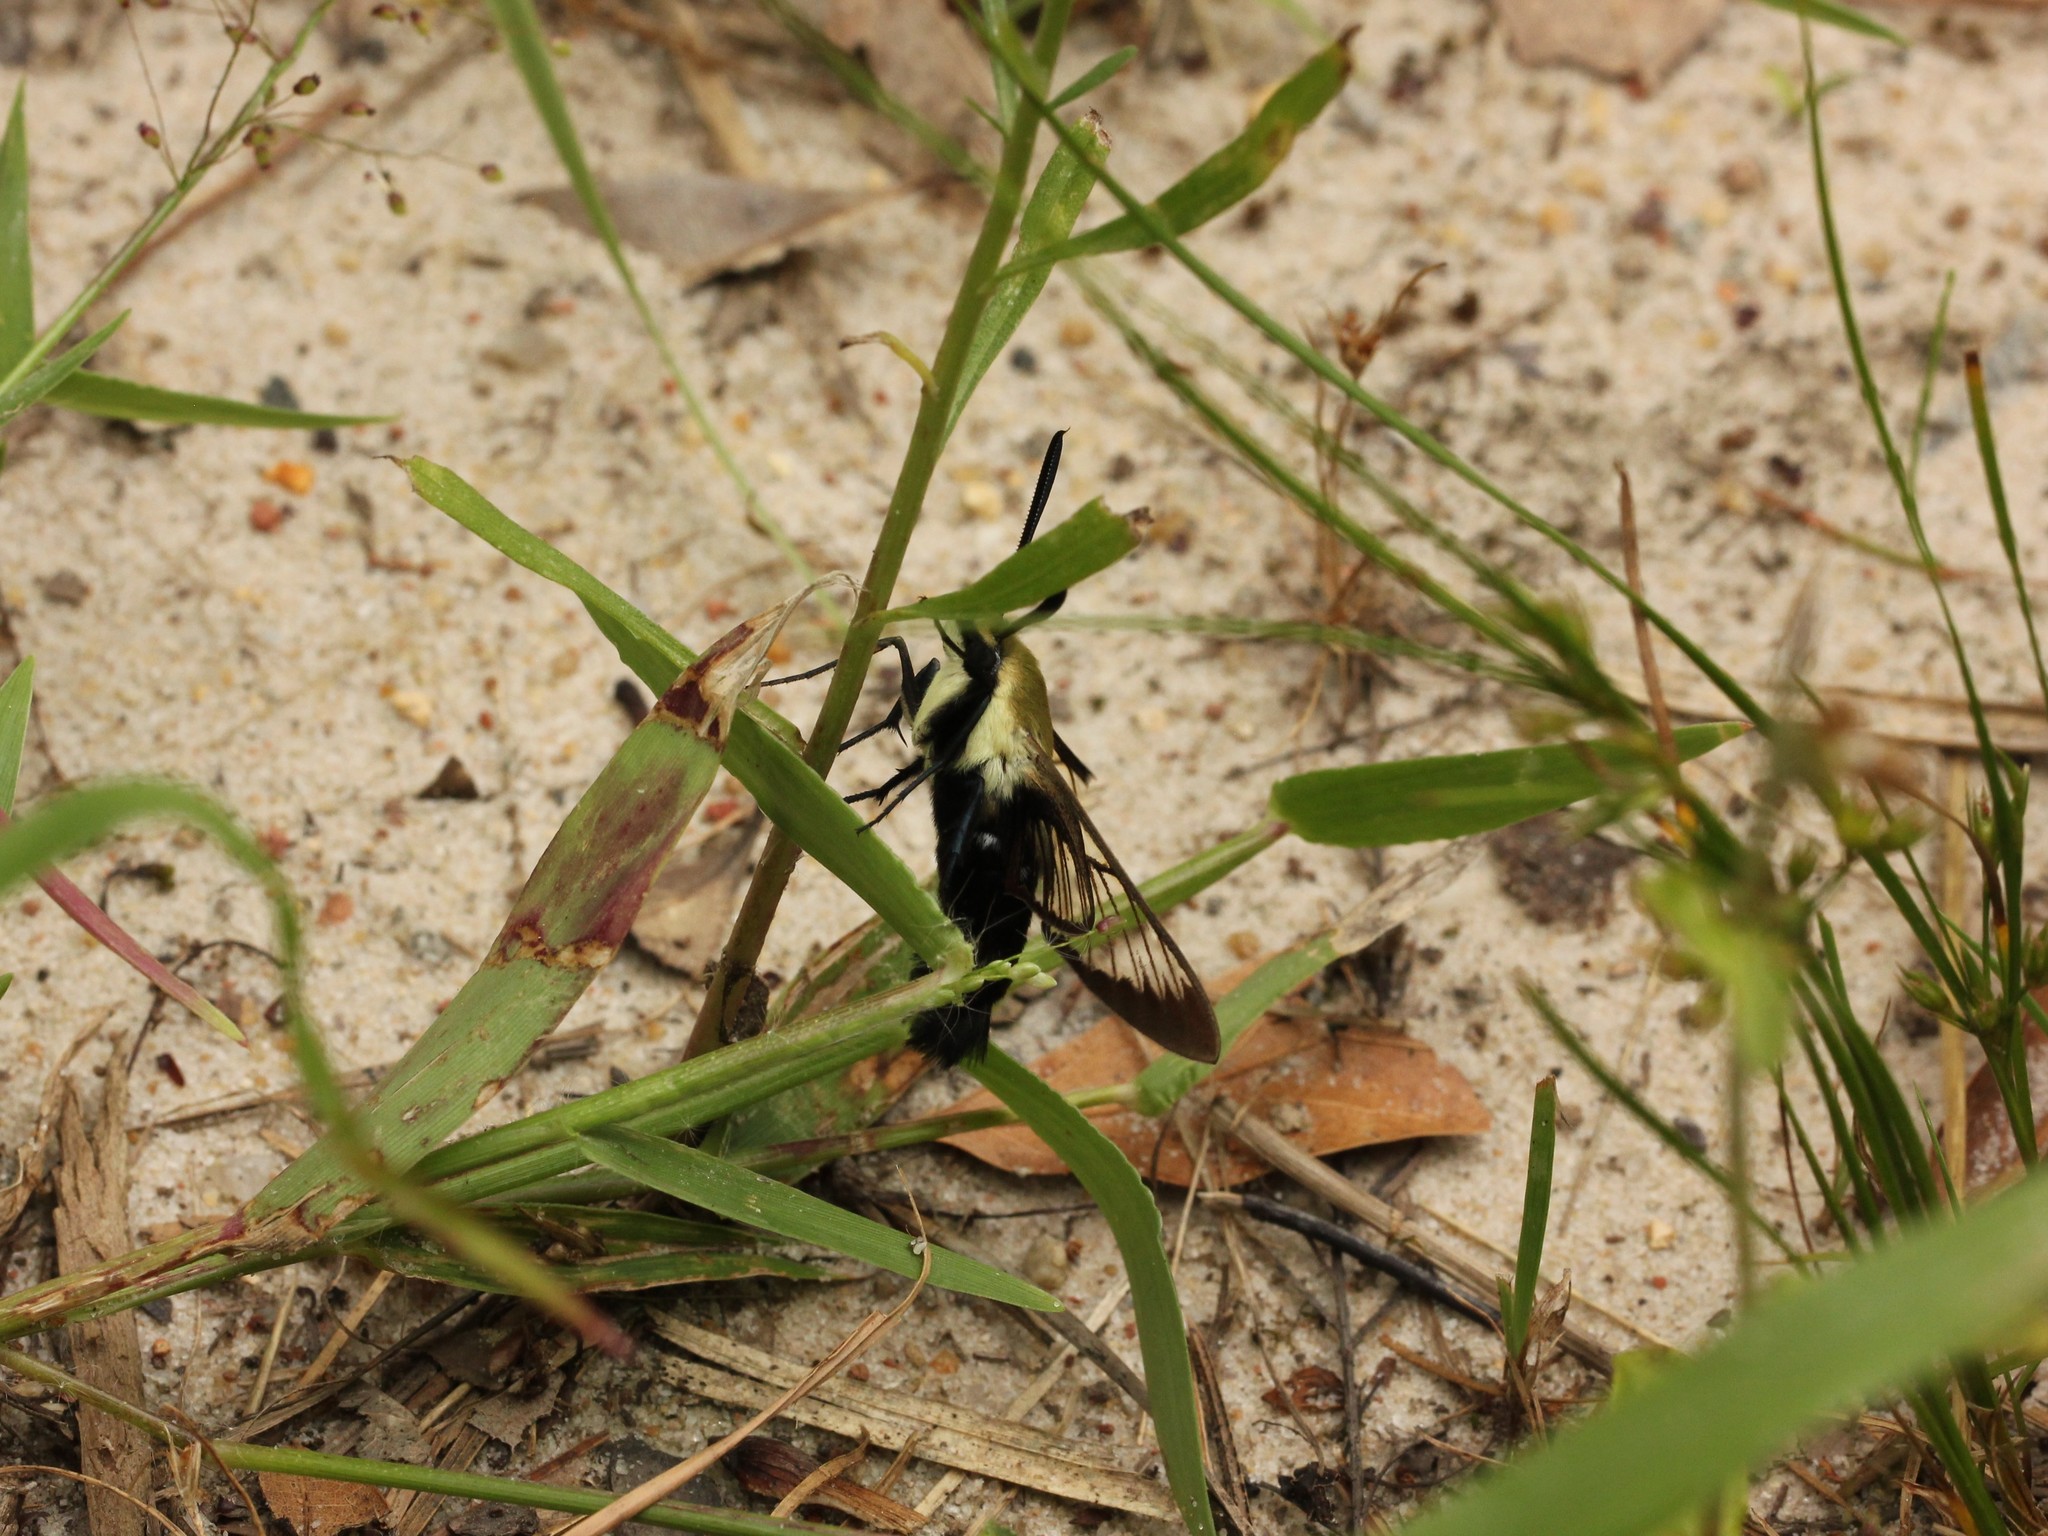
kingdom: Animalia
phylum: Arthropoda
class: Insecta
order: Lepidoptera
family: Sphingidae
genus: Hemaris
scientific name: Hemaris diffinis
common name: Bumblebee moth
